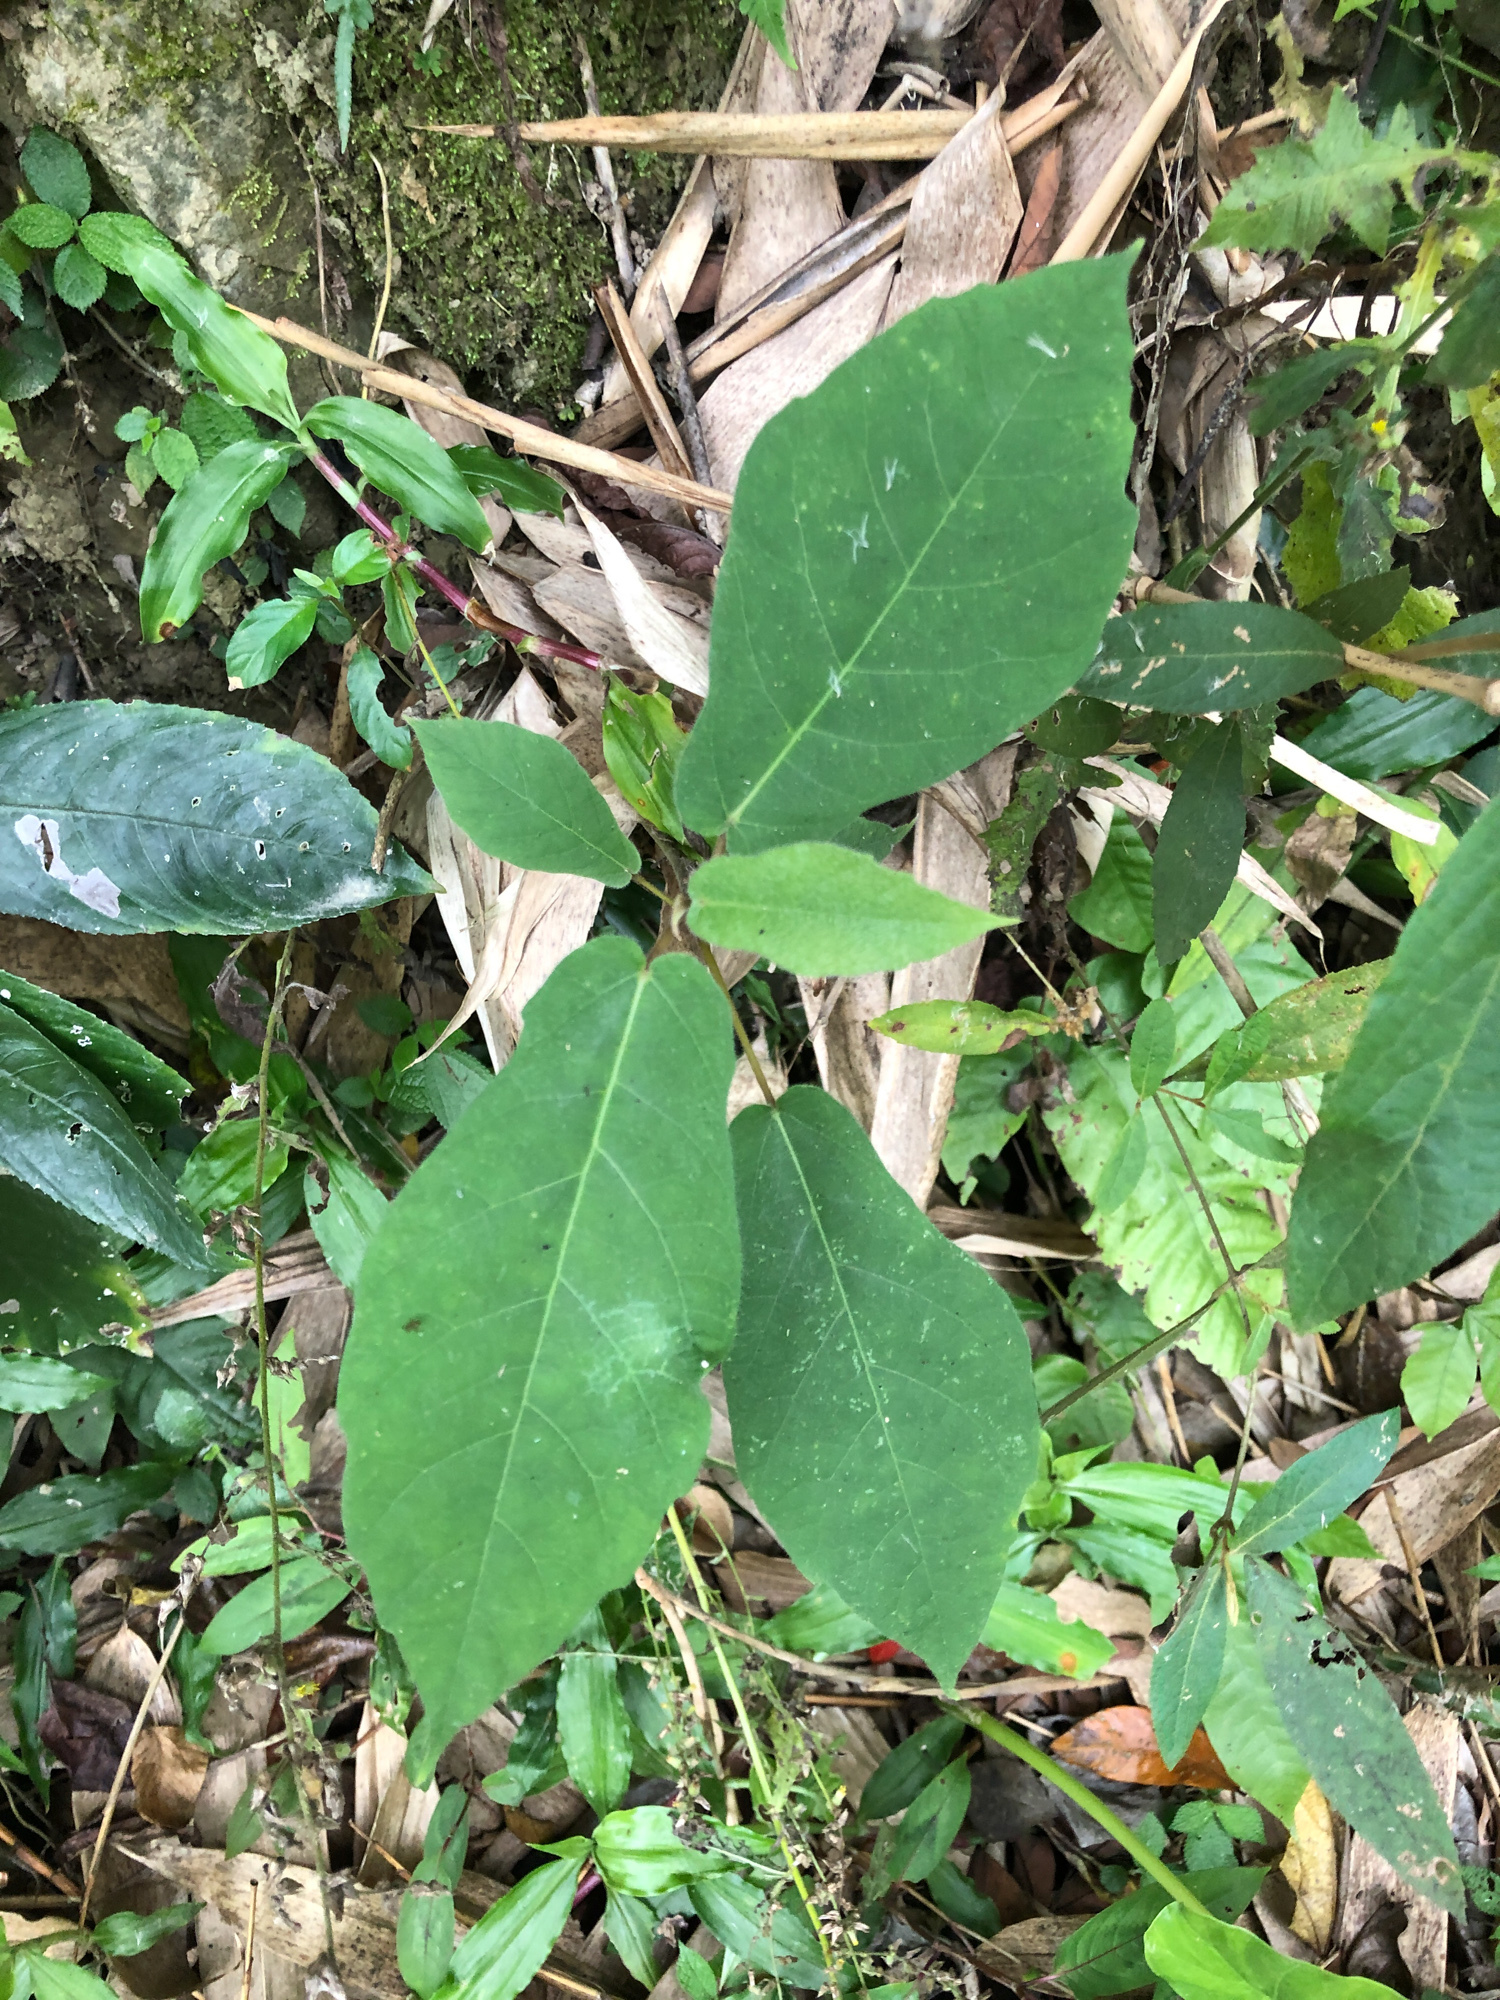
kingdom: Plantae
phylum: Tracheophyta
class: Magnoliopsida
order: Rosales
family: Moraceae
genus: Ficus
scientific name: Ficus erecta
